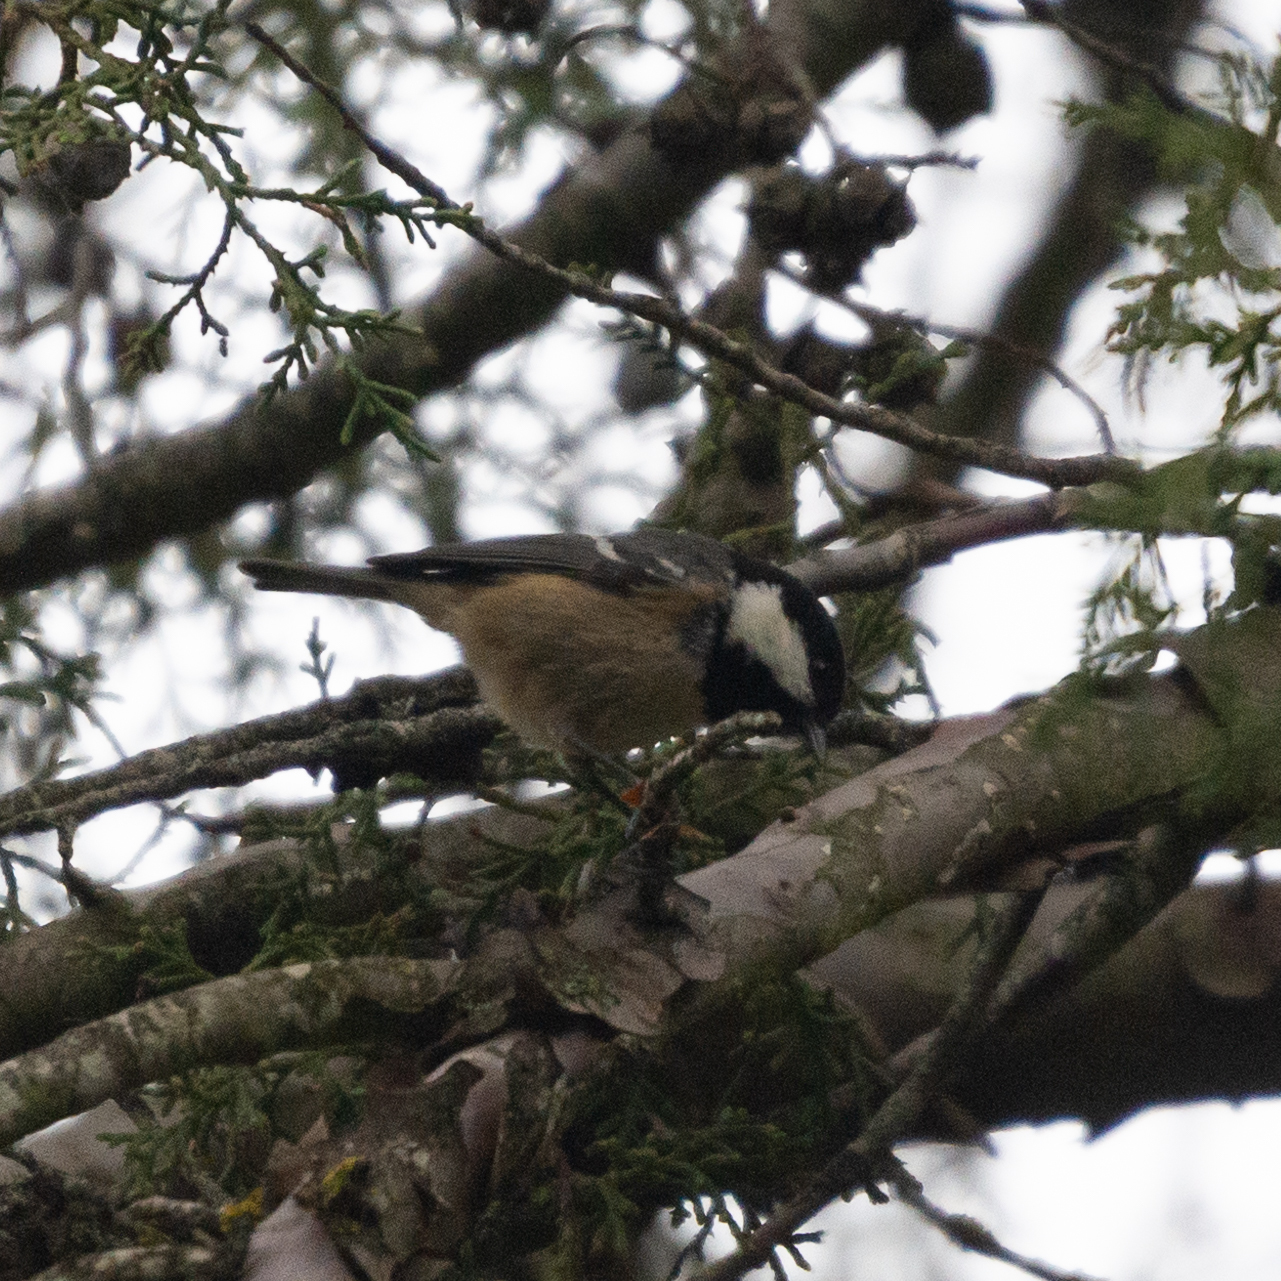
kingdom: Animalia
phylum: Chordata
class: Aves
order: Passeriformes
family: Paridae
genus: Periparus
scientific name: Periparus ater
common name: Coal tit
